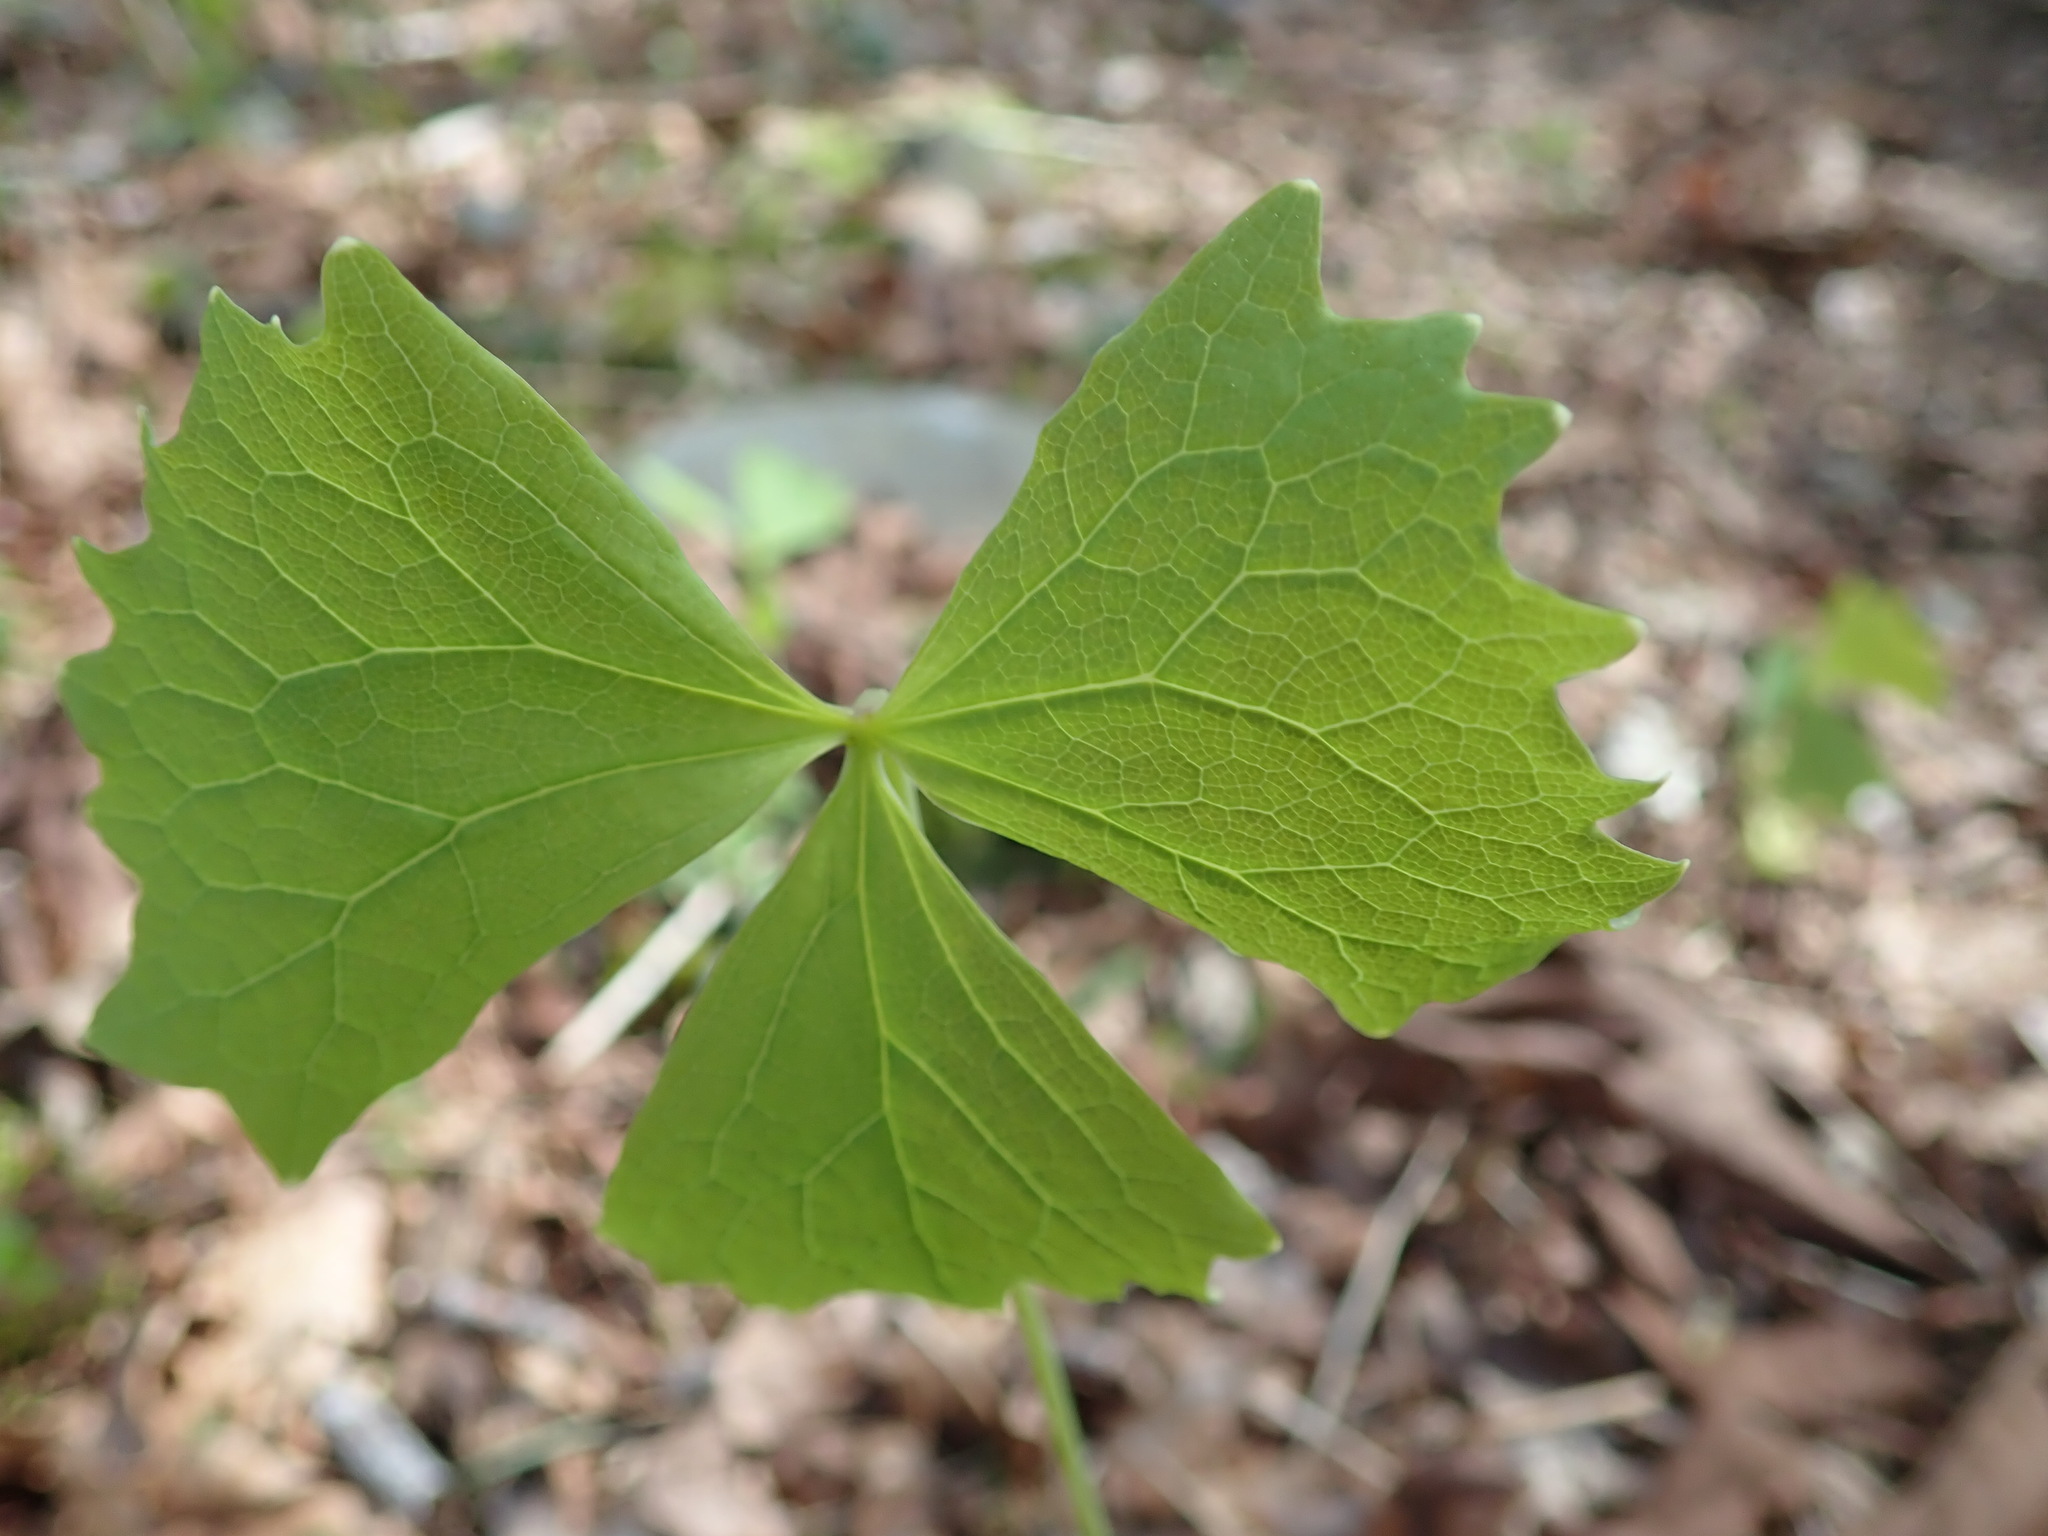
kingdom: Plantae
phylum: Tracheophyta
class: Magnoliopsida
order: Ranunculales
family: Berberidaceae
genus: Achlys
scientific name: Achlys triphylla
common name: Vanilla-leaf
